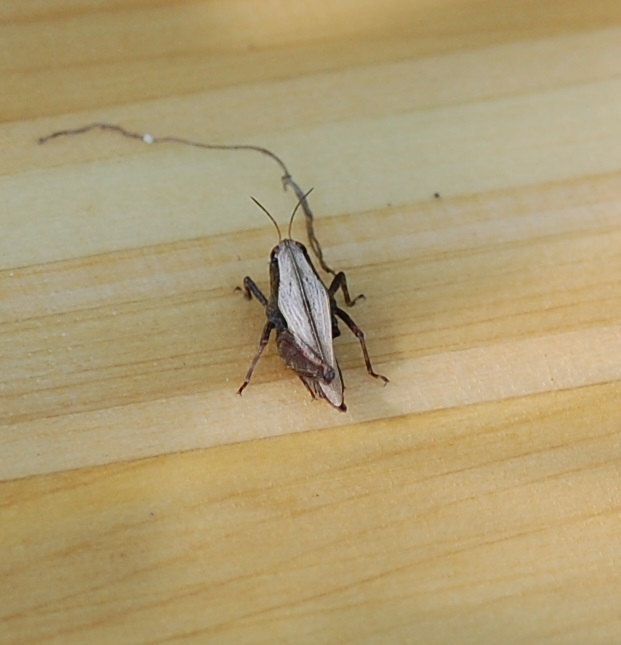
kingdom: Animalia
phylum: Arthropoda
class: Insecta
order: Orthoptera
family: Tetrigidae
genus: Tettigidea
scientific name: Tettigidea laterale
